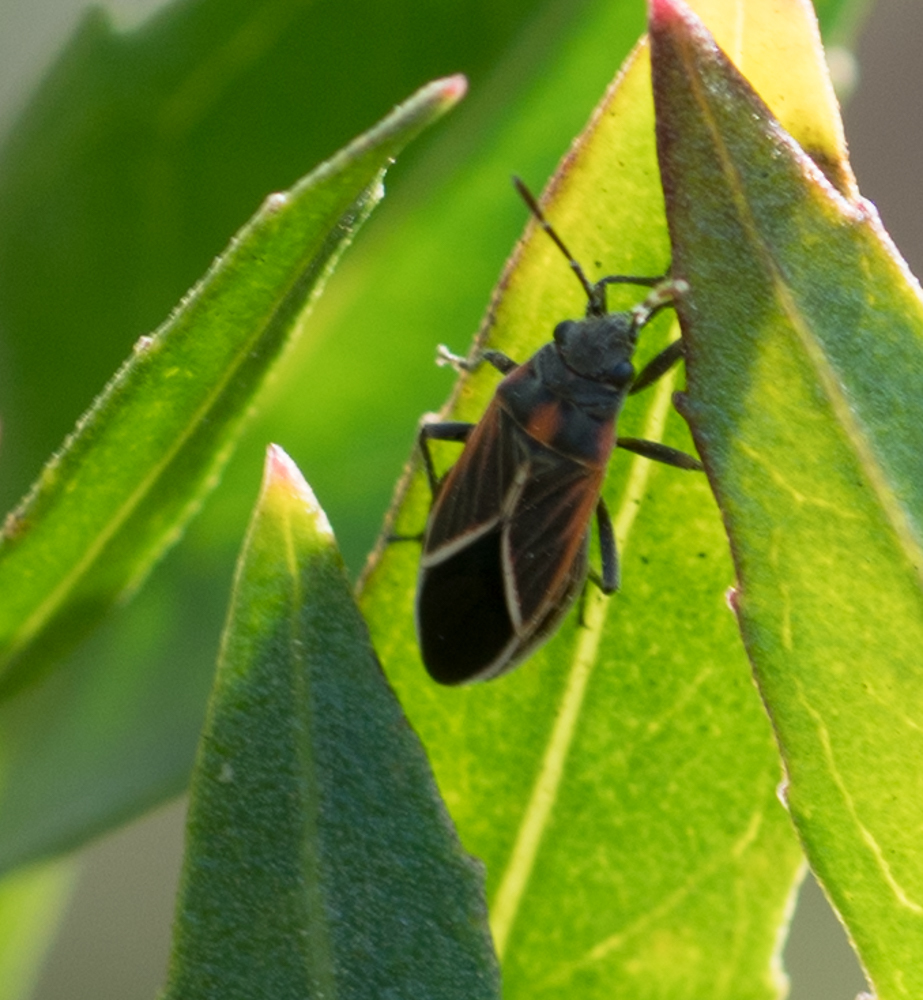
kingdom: Animalia
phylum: Arthropoda
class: Insecta
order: Hemiptera
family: Lygaeidae
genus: Ochrimnus
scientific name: Ochrimnus carnosulus
